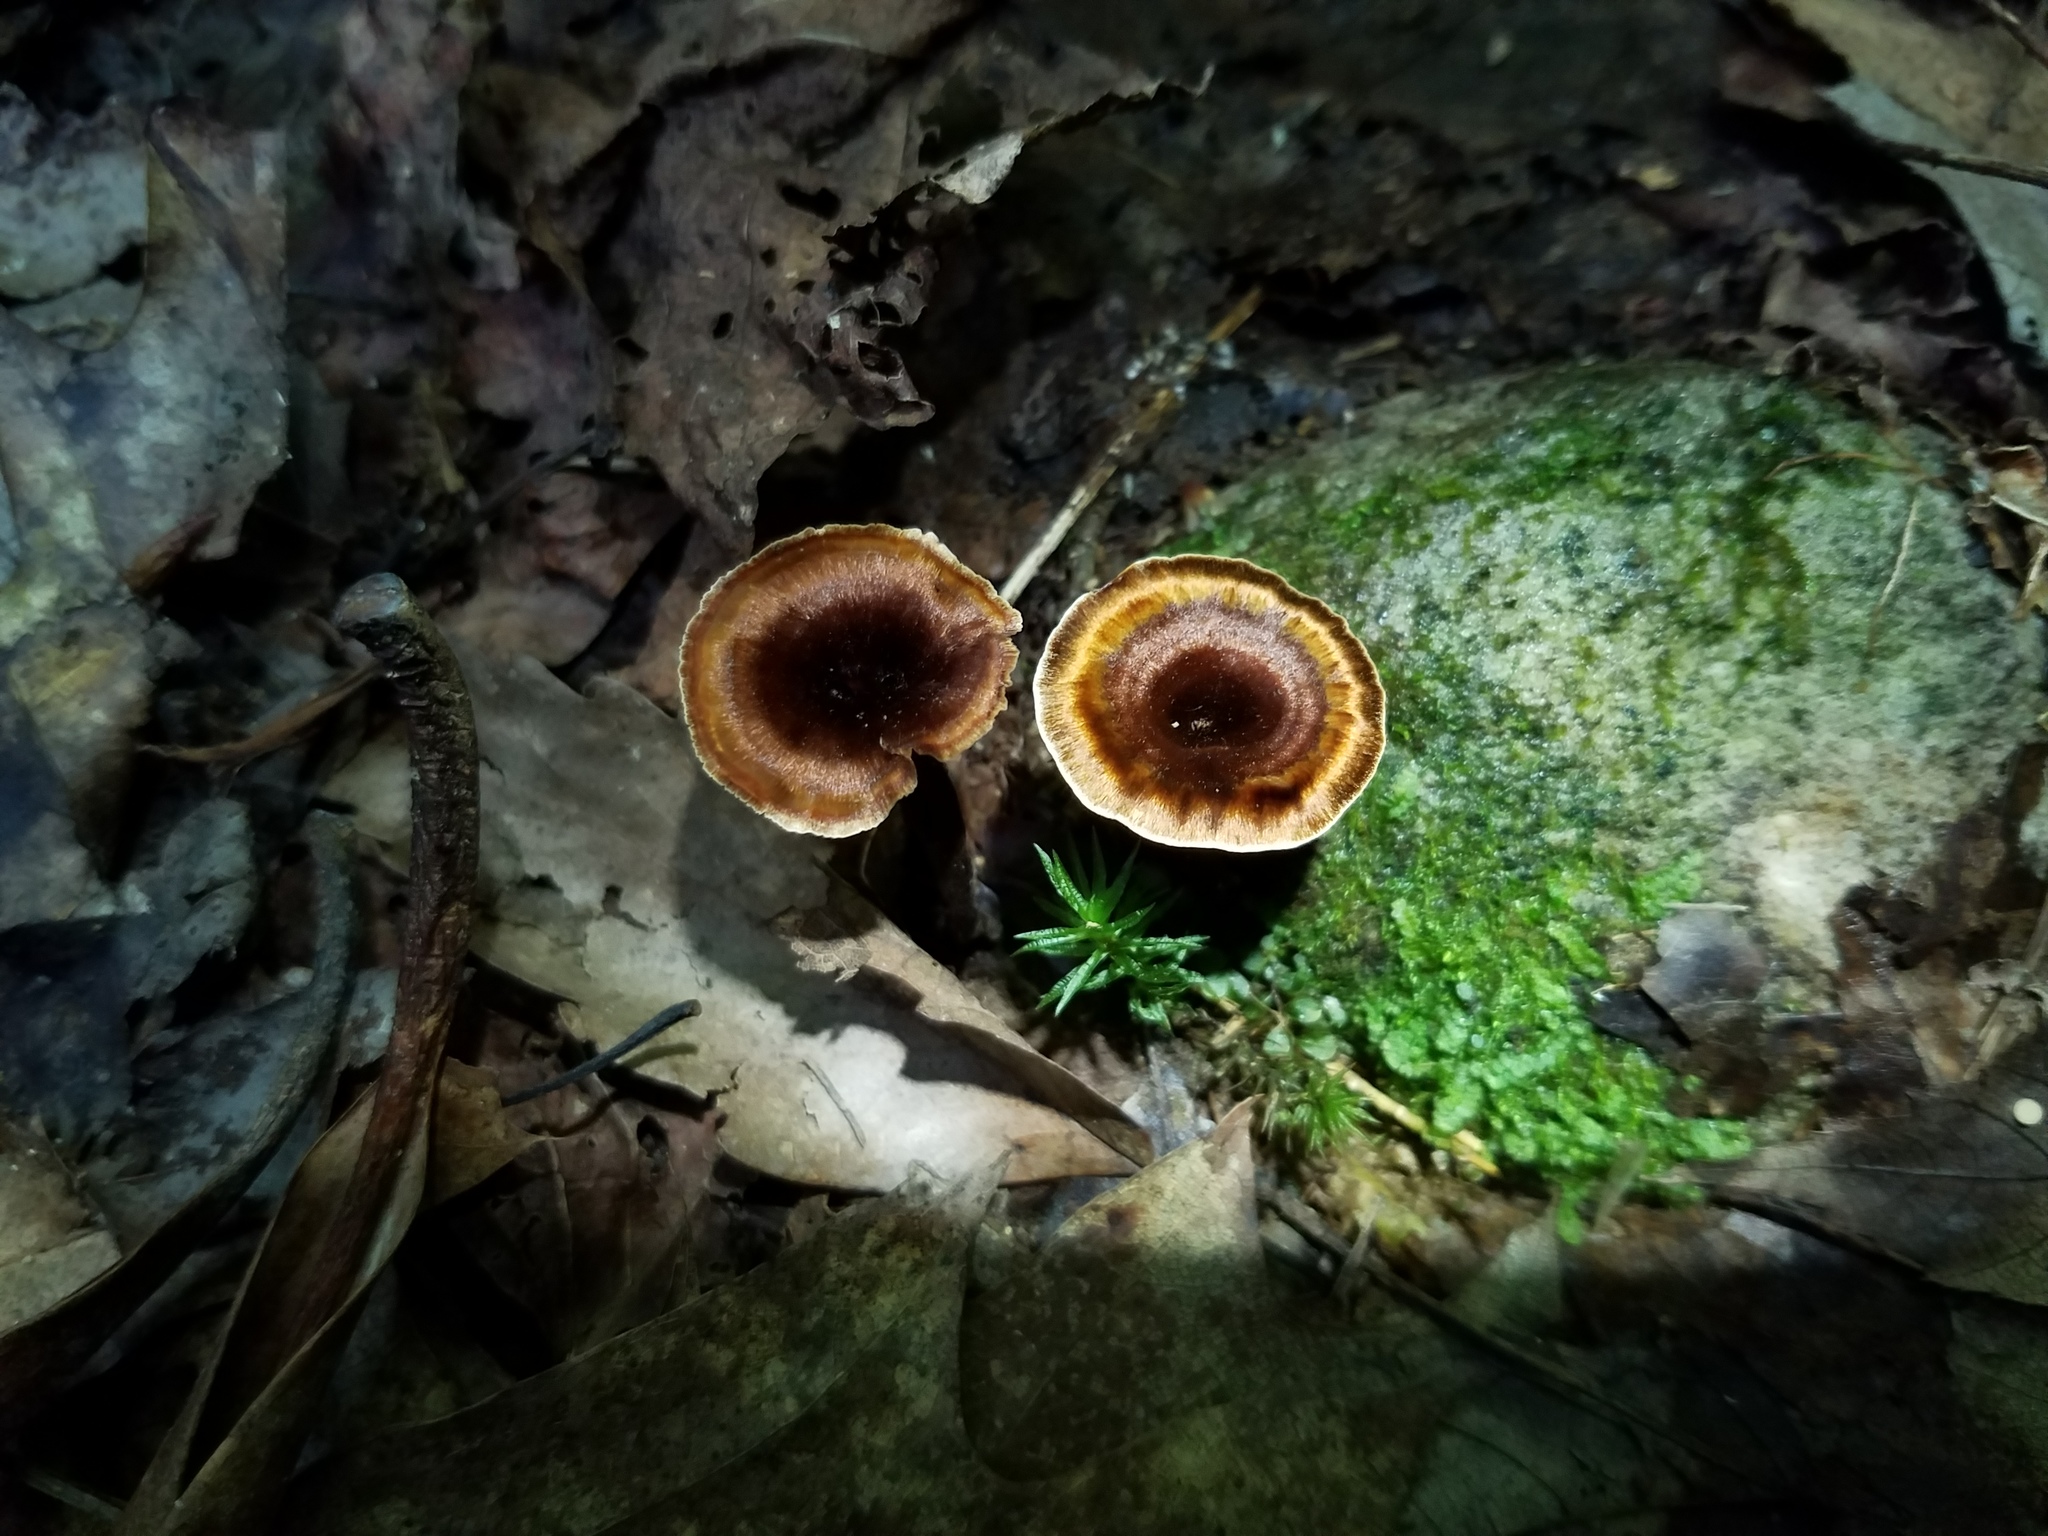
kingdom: Fungi
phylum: Basidiomycota
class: Agaricomycetes
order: Hymenochaetales
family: Hymenochaetaceae
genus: Coltricia
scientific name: Coltricia cinnamomea
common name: Shiny cinnamon polypore
